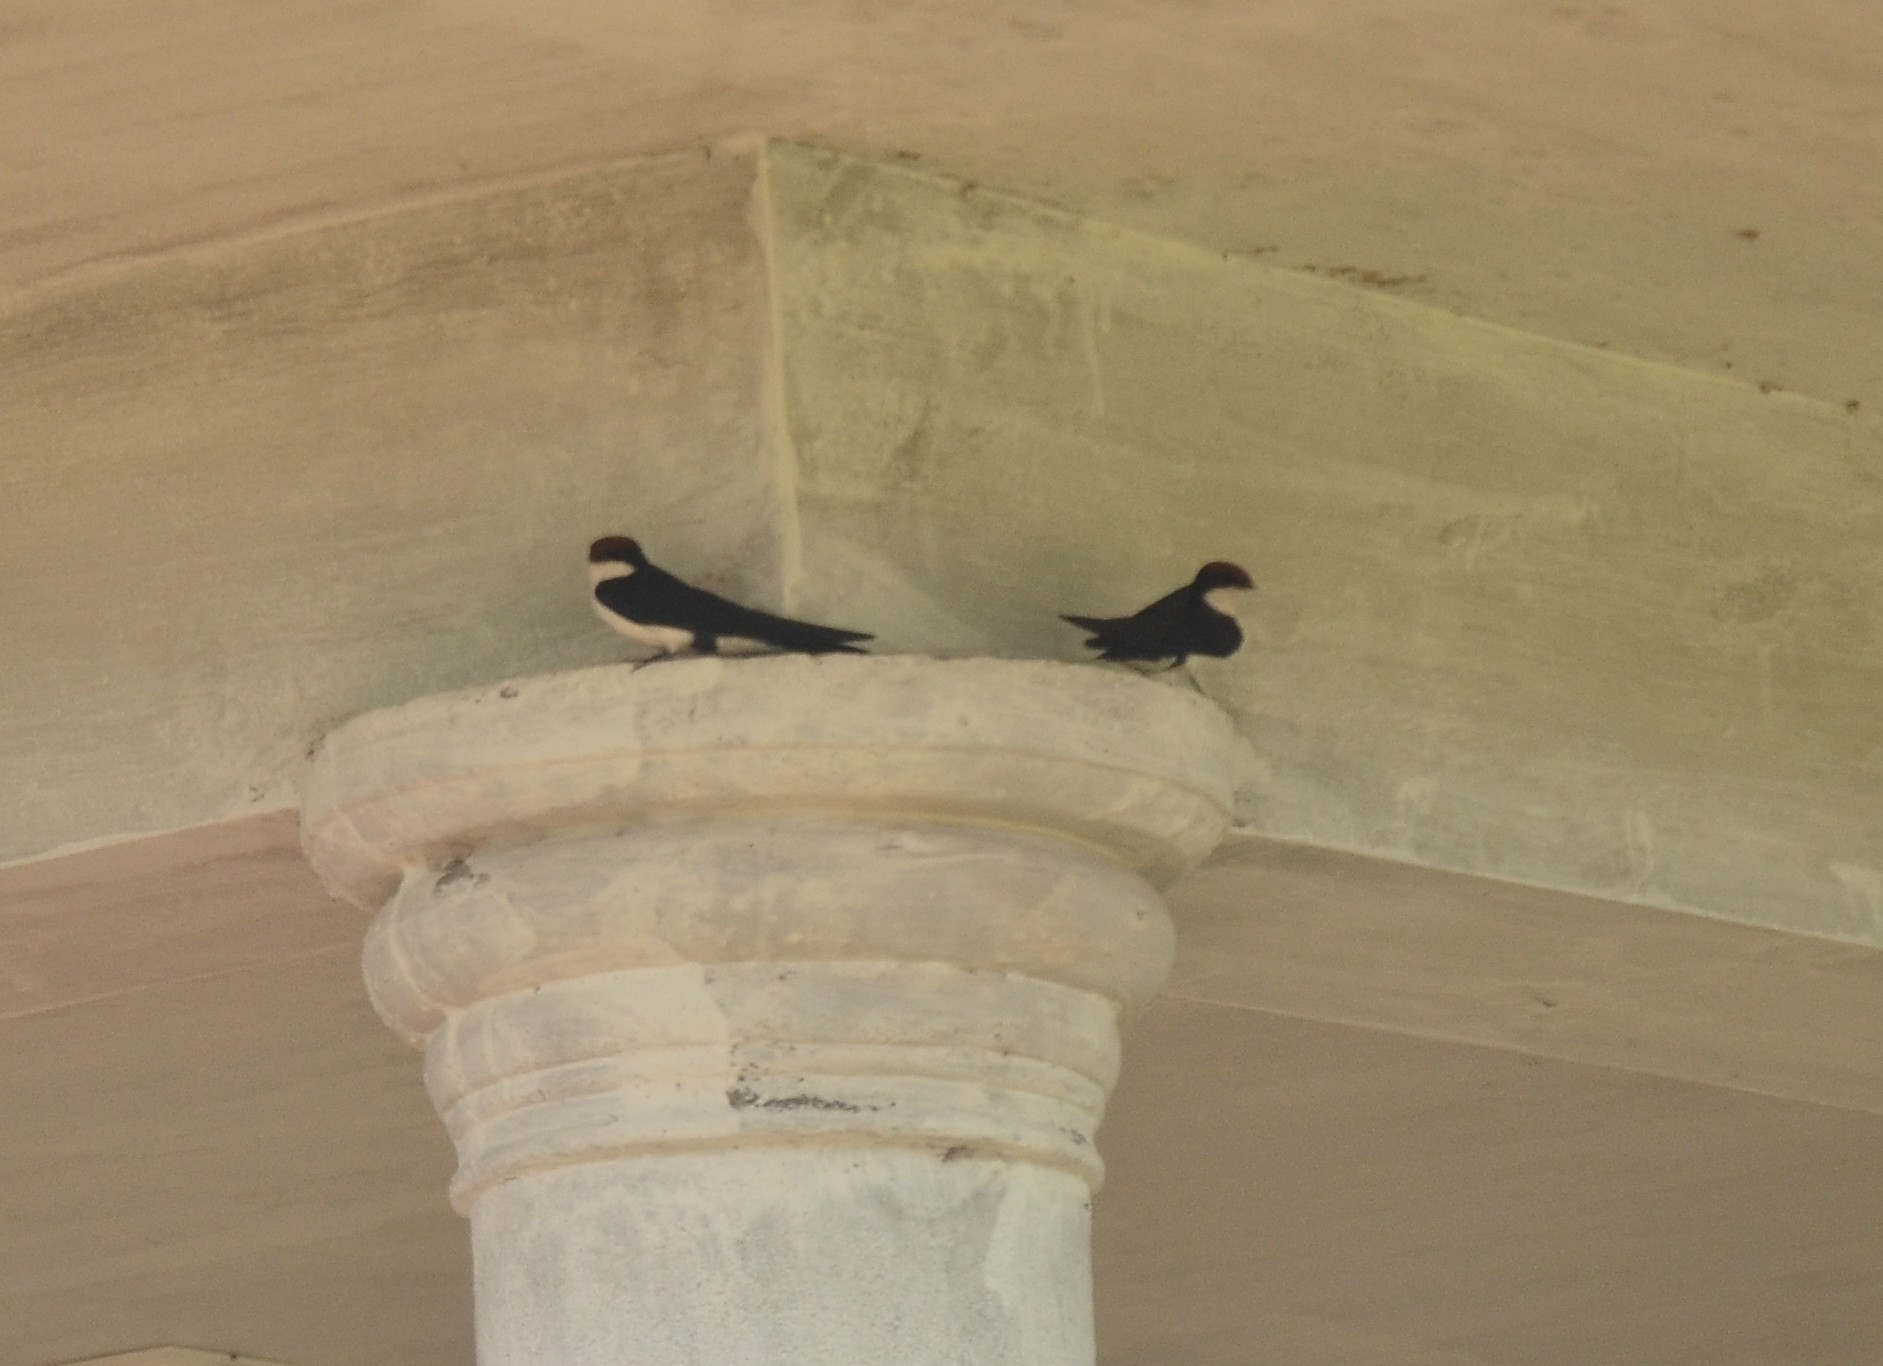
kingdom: Animalia
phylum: Chordata
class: Aves
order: Passeriformes
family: Hirundinidae
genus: Hirundo
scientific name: Hirundo smithii
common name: Wire-tailed swallow
